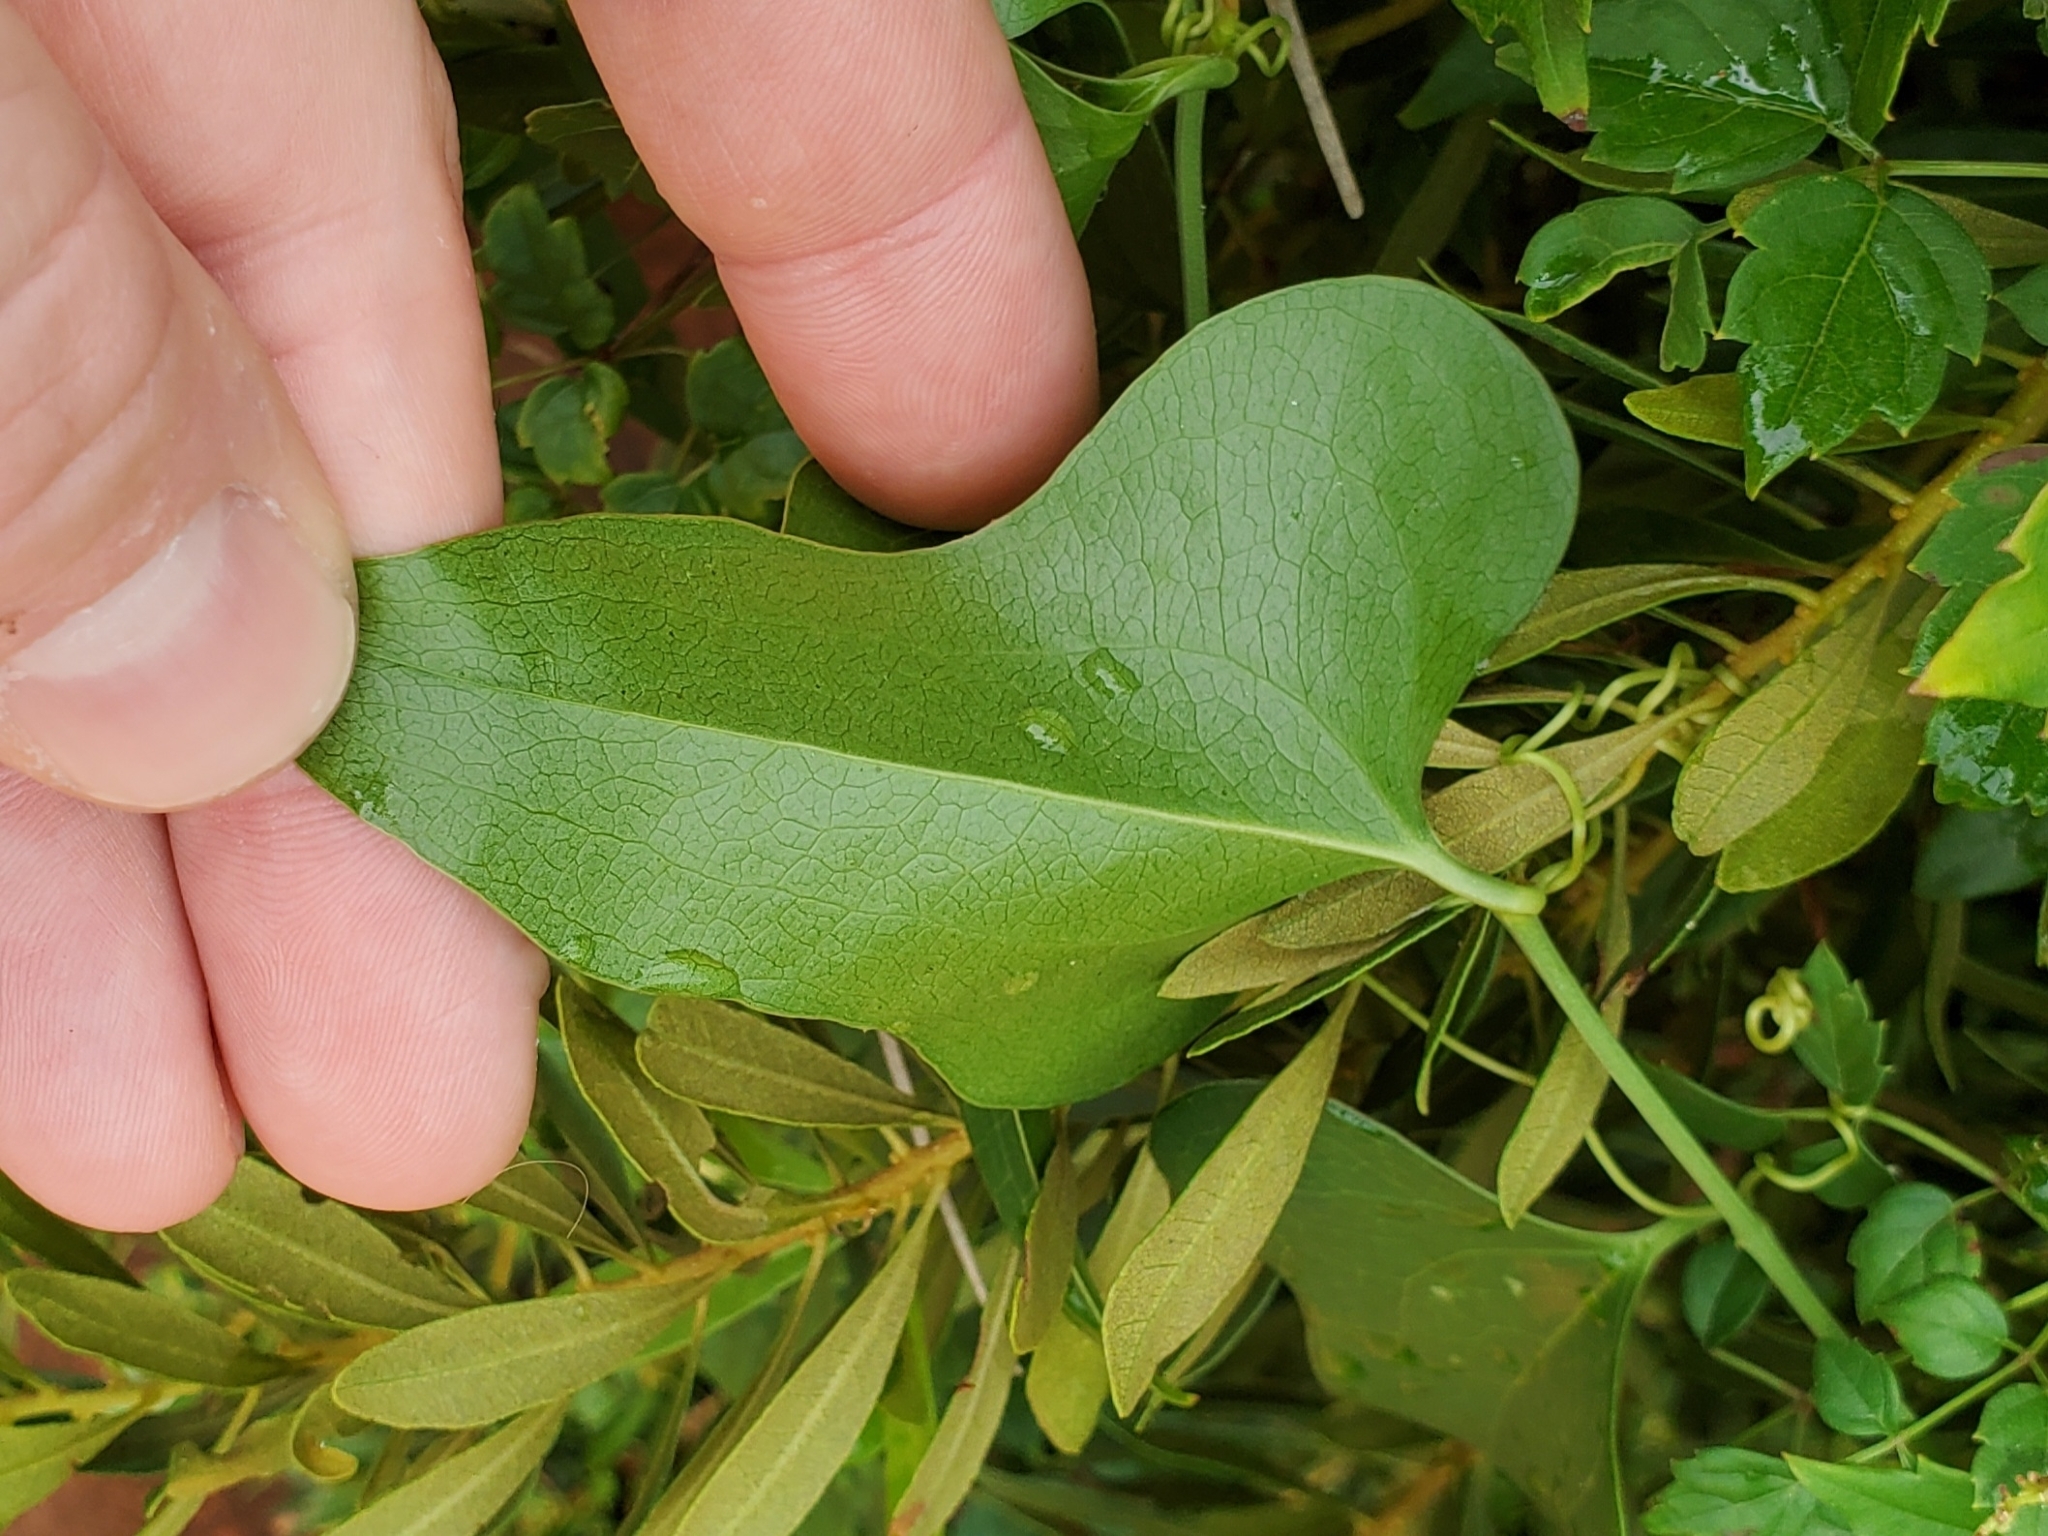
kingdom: Plantae
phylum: Tracheophyta
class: Liliopsida
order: Liliales
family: Smilacaceae
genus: Smilax
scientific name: Smilax bona-nox
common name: Catbrier
